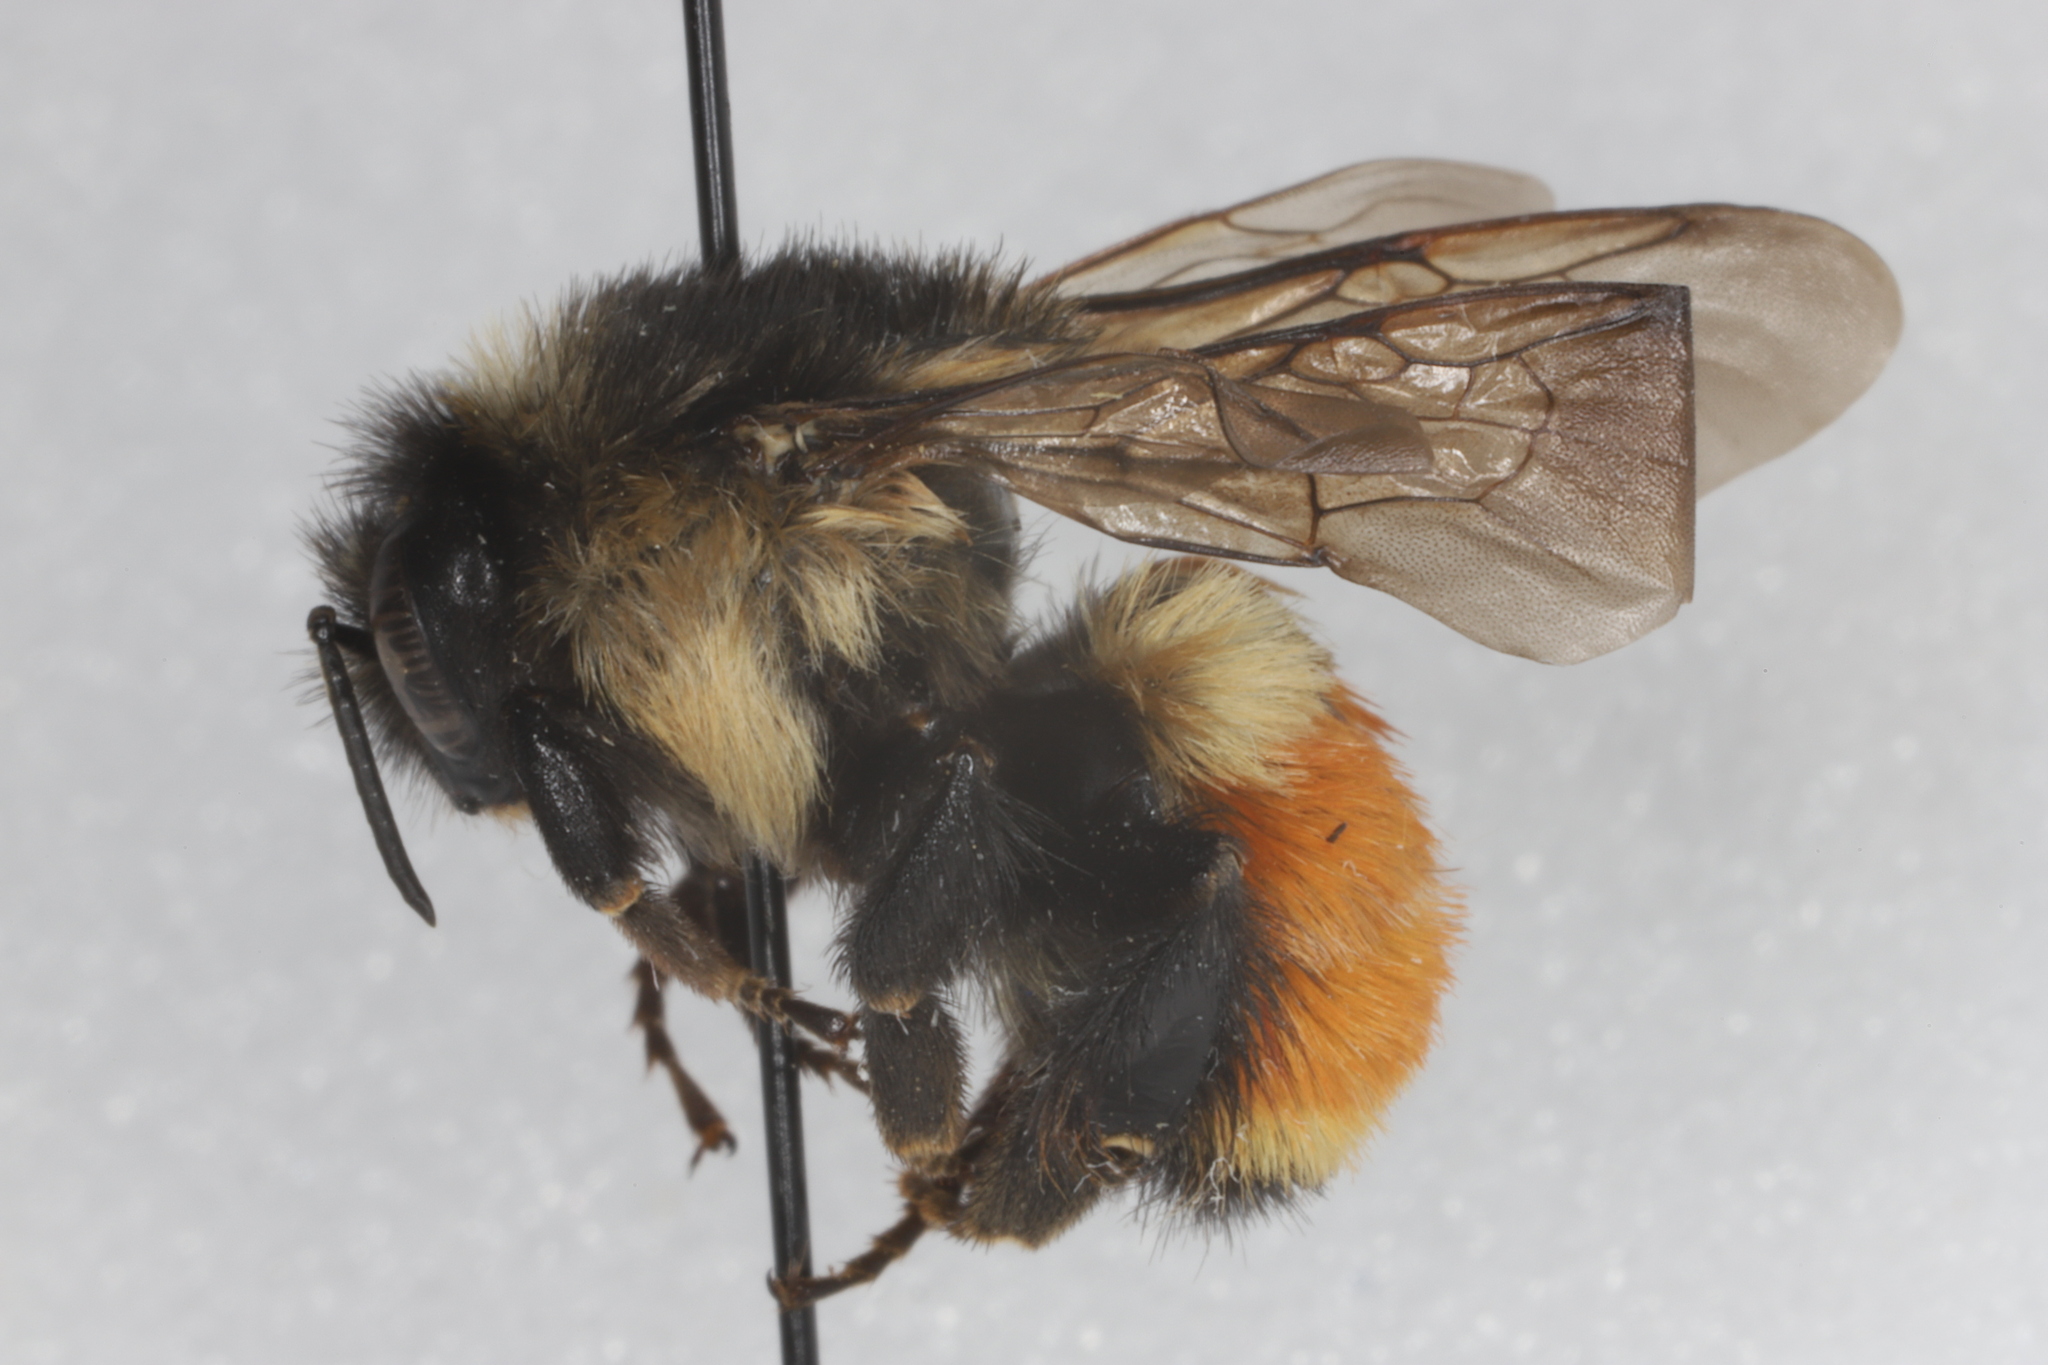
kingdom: Animalia
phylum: Arthropoda
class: Insecta
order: Hymenoptera
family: Apidae
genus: Bombus
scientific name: Bombus ternarius
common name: Tri-colored bumble bee
